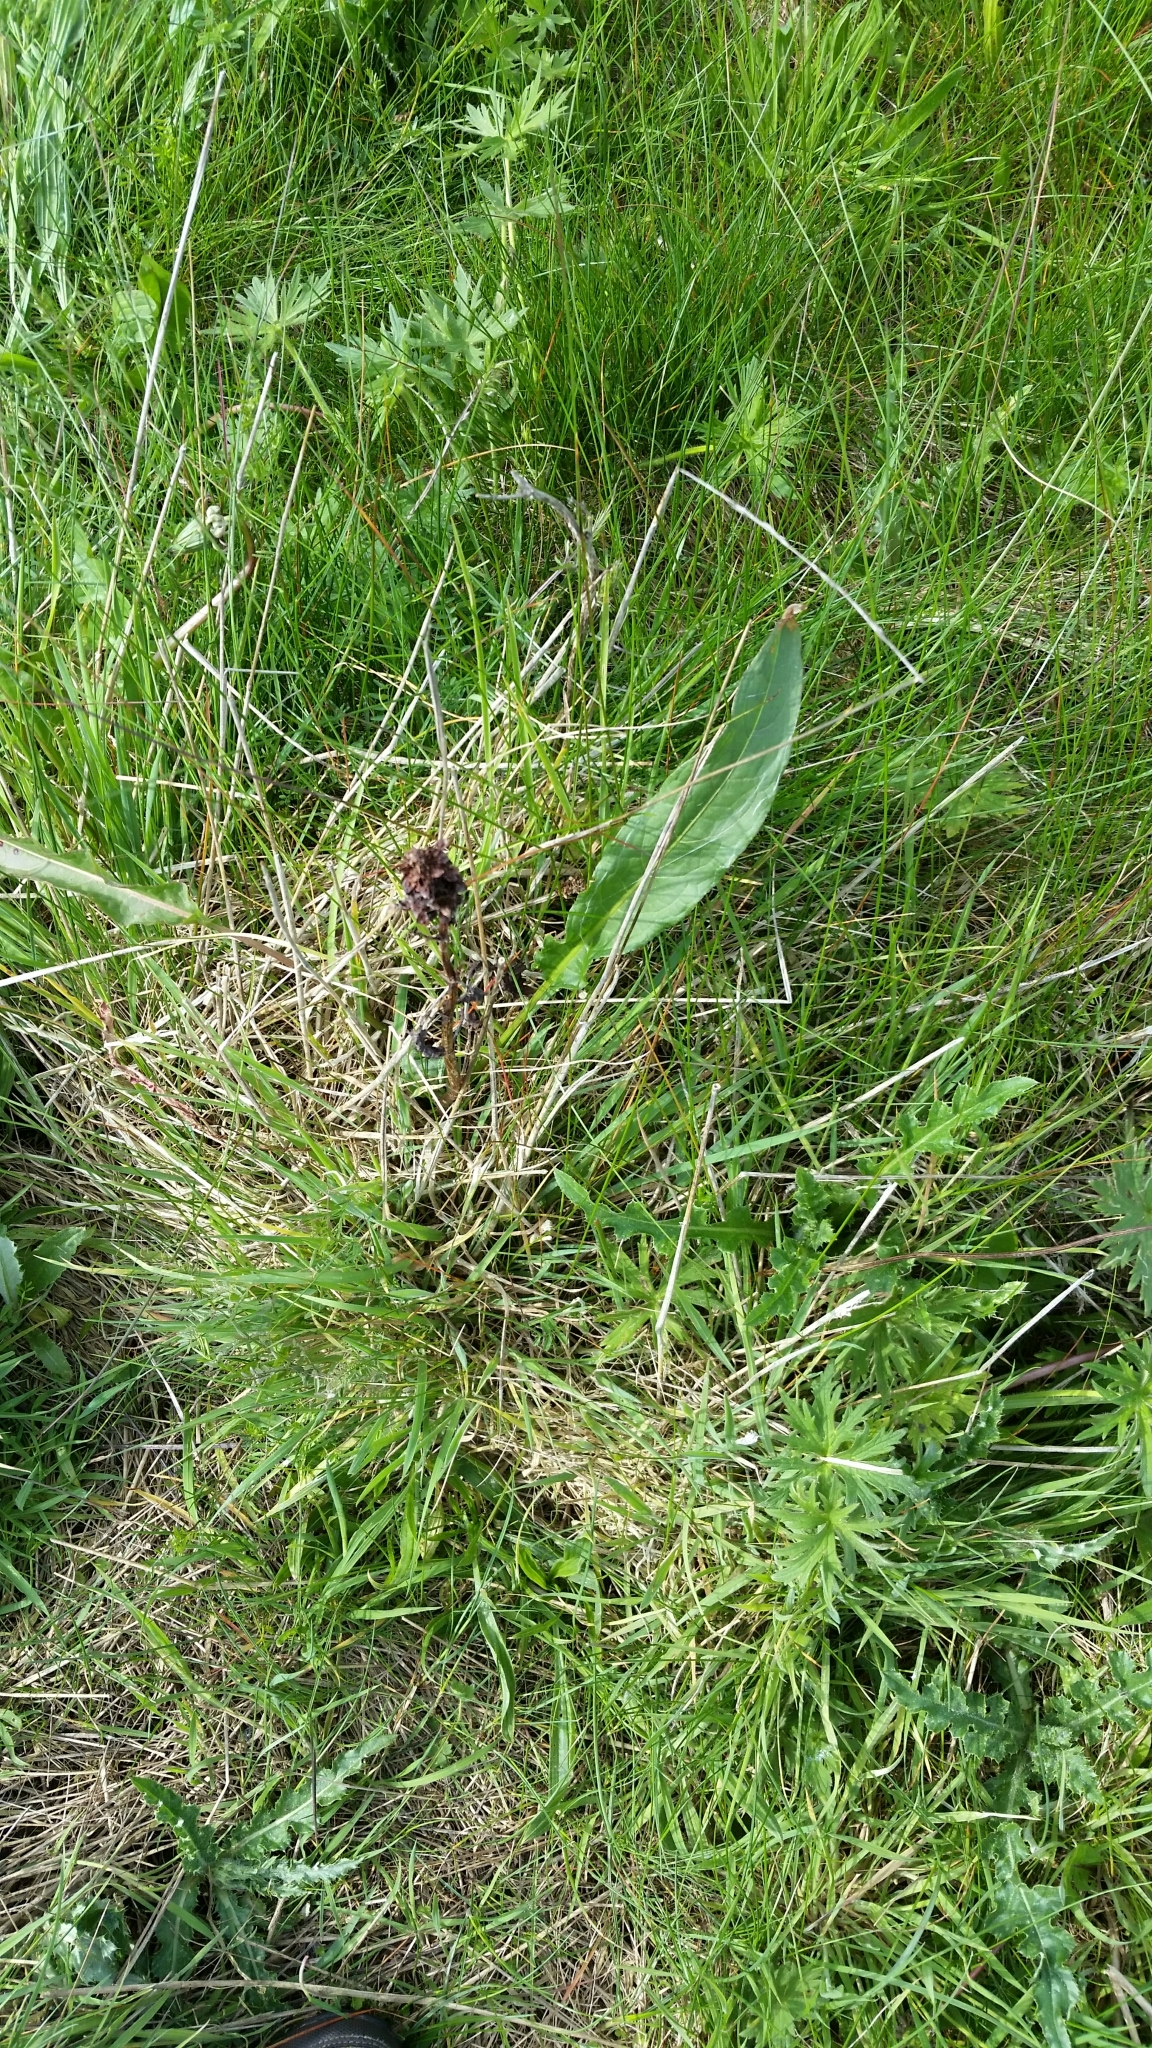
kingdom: Plantae
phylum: Tracheophyta
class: Magnoliopsida
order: Caryophyllales
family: Polygonaceae
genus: Rumex
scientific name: Rumex crispus
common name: Curled dock
